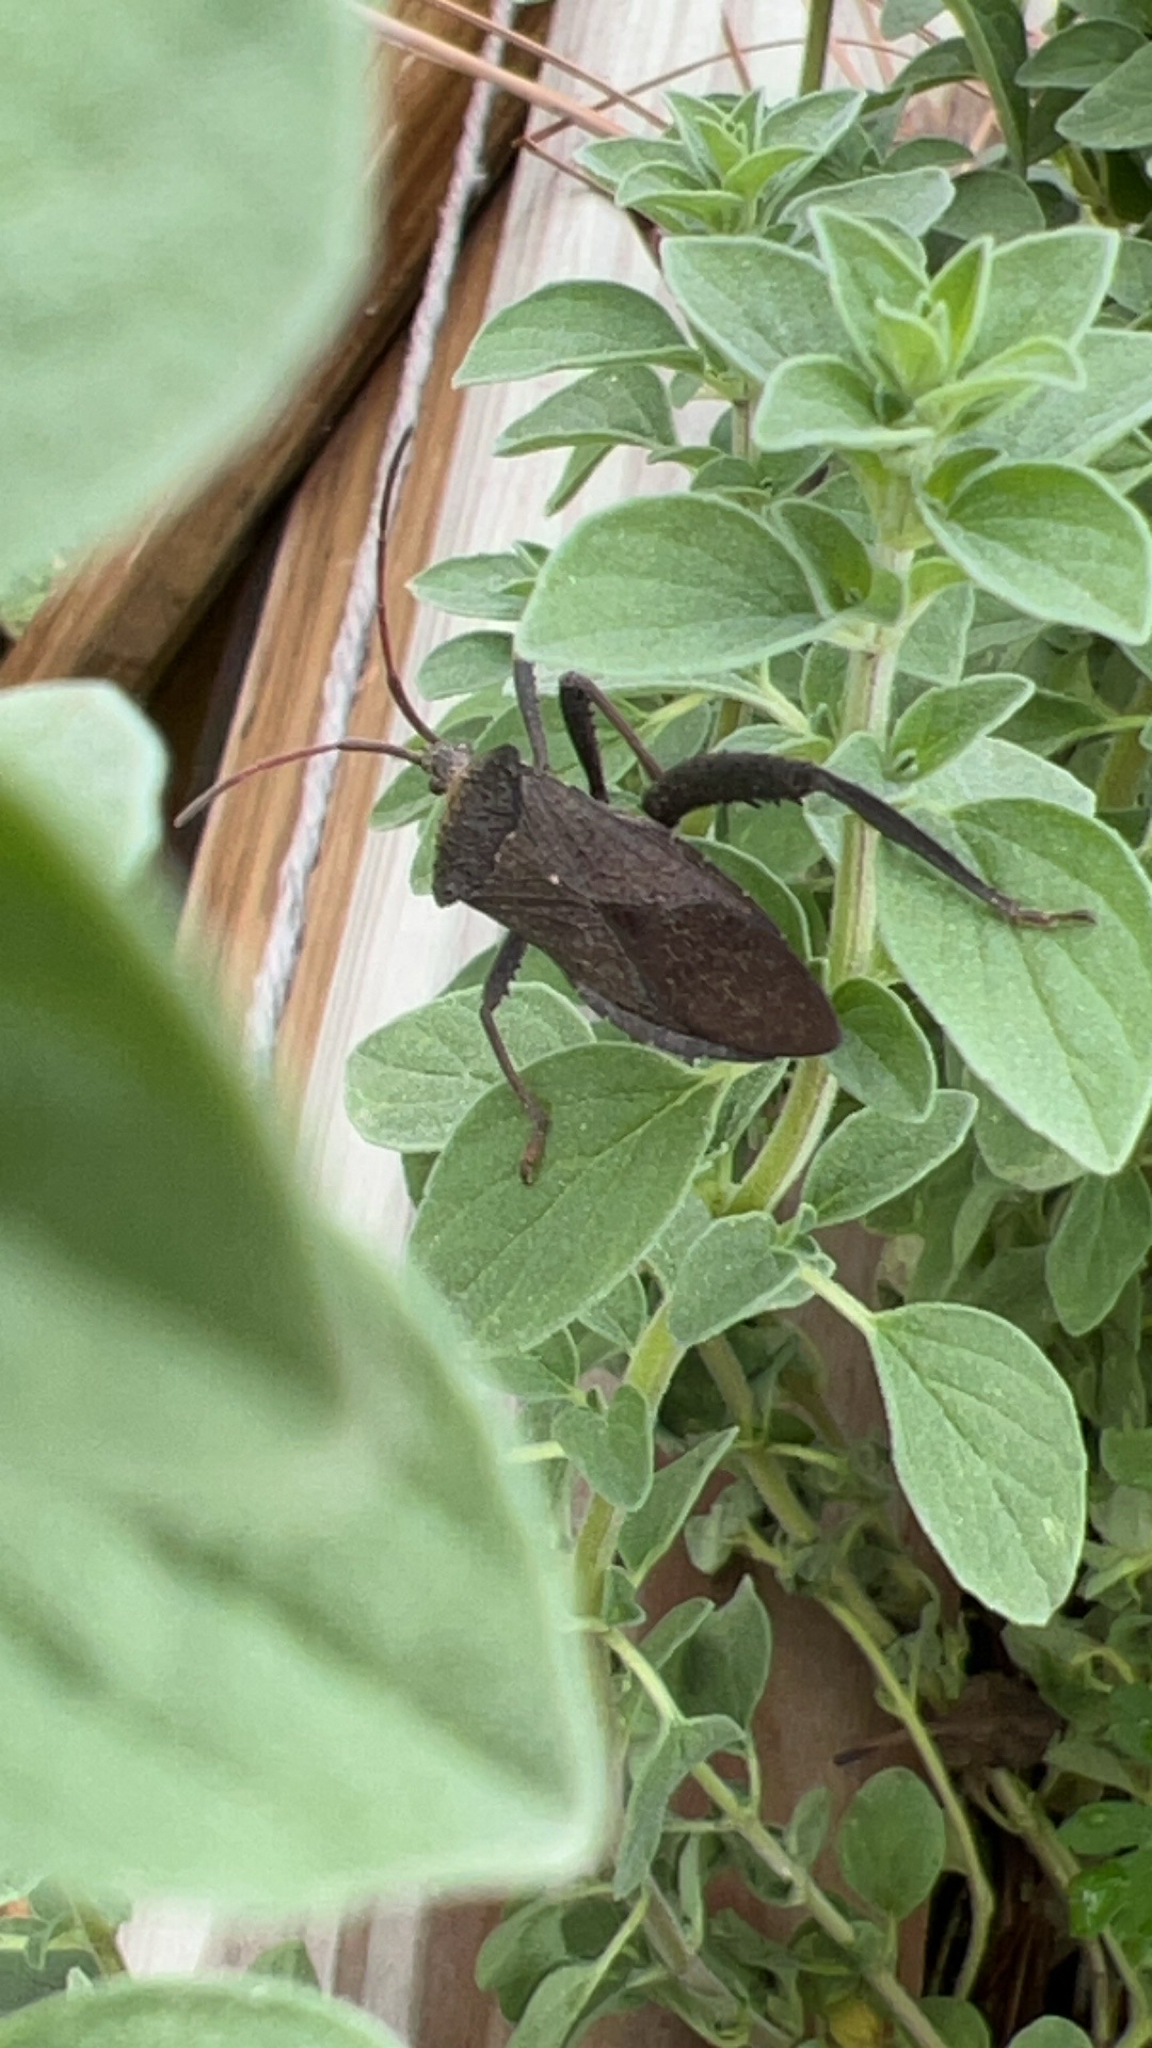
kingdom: Animalia
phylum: Arthropoda
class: Insecta
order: Hemiptera
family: Coreidae
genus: Acanthocephala
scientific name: Acanthocephala femorata
